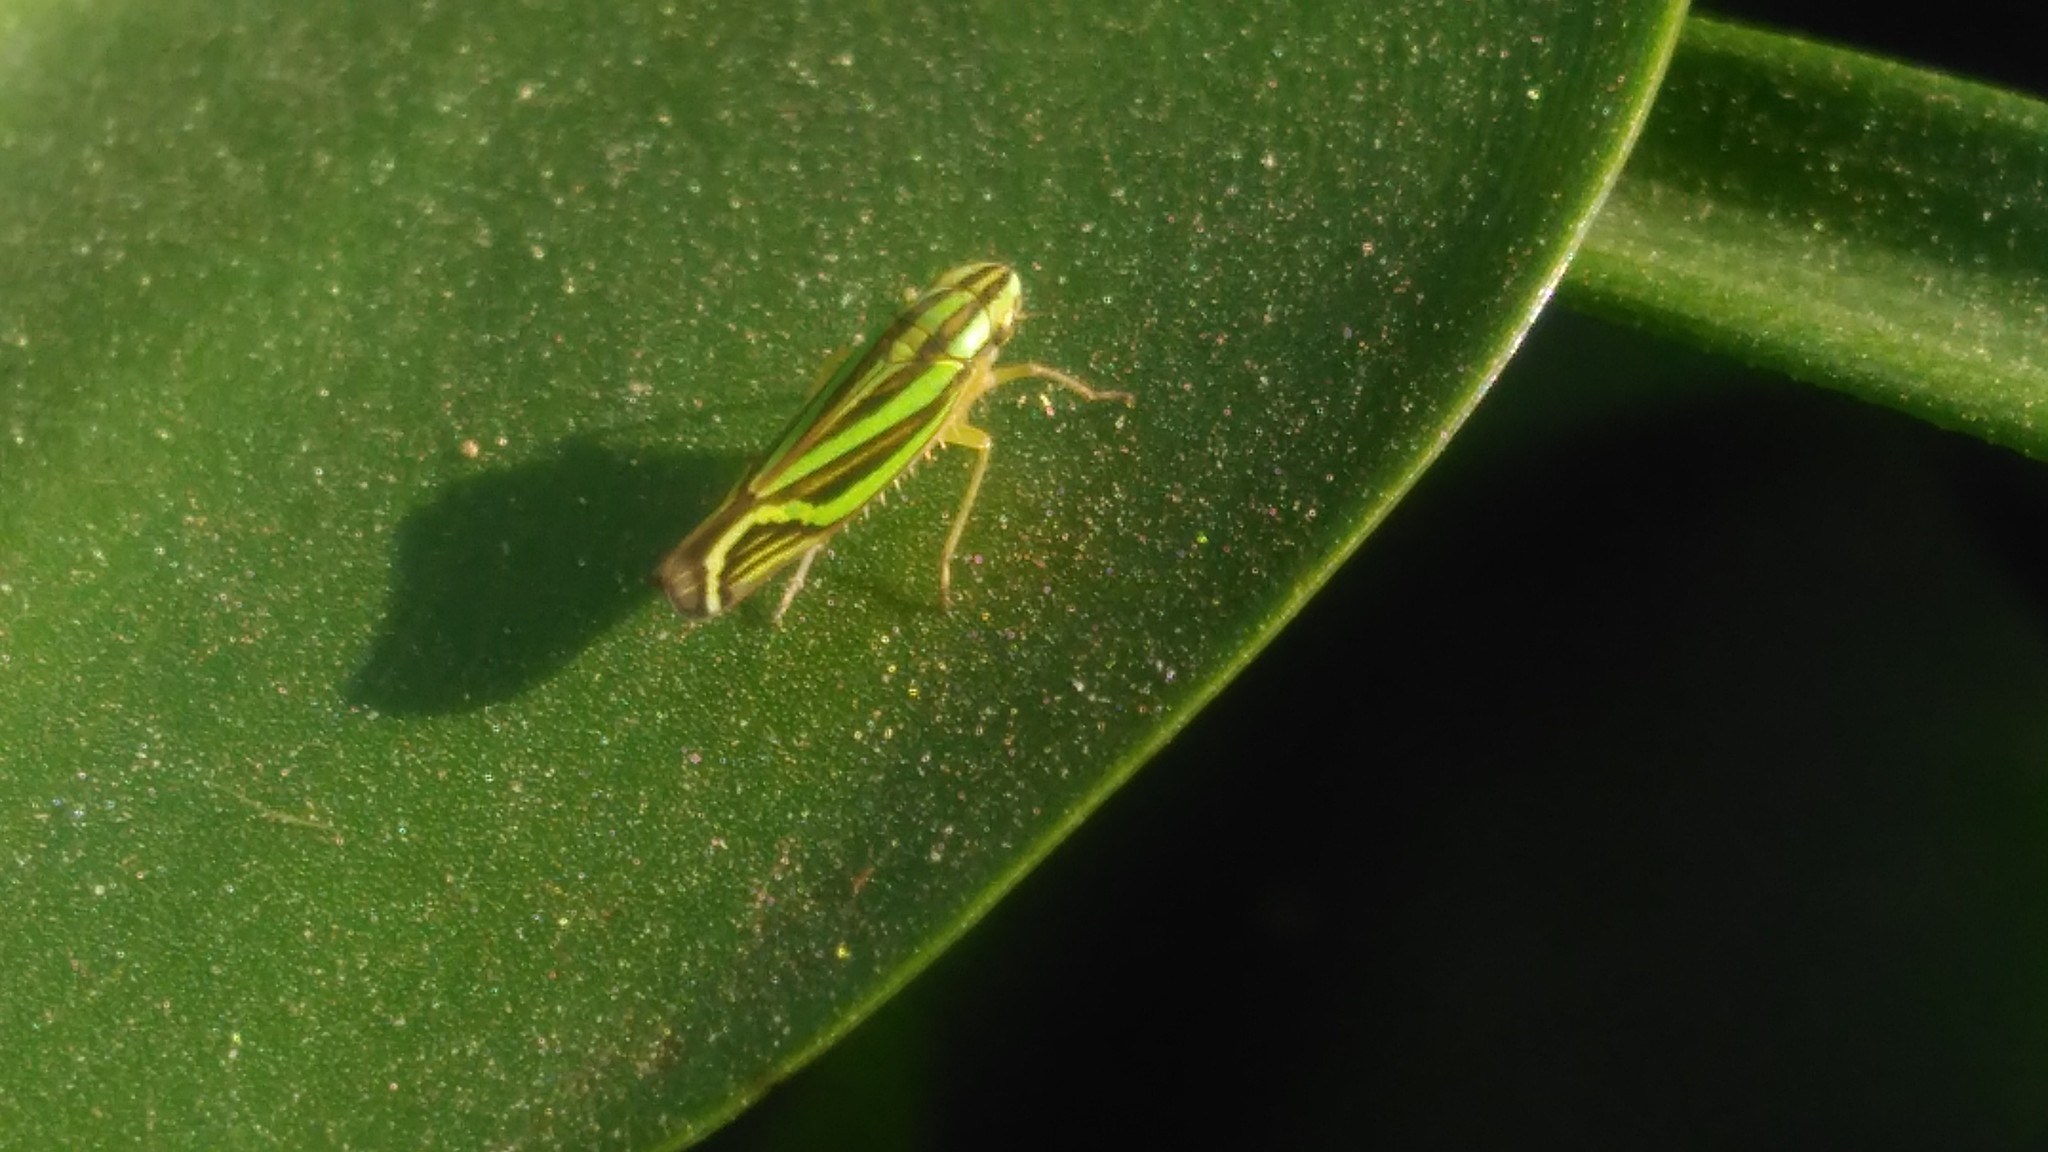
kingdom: Animalia
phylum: Arthropoda
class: Insecta
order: Hemiptera
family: Cicadellidae
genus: Sibovia
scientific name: Sibovia sagata
